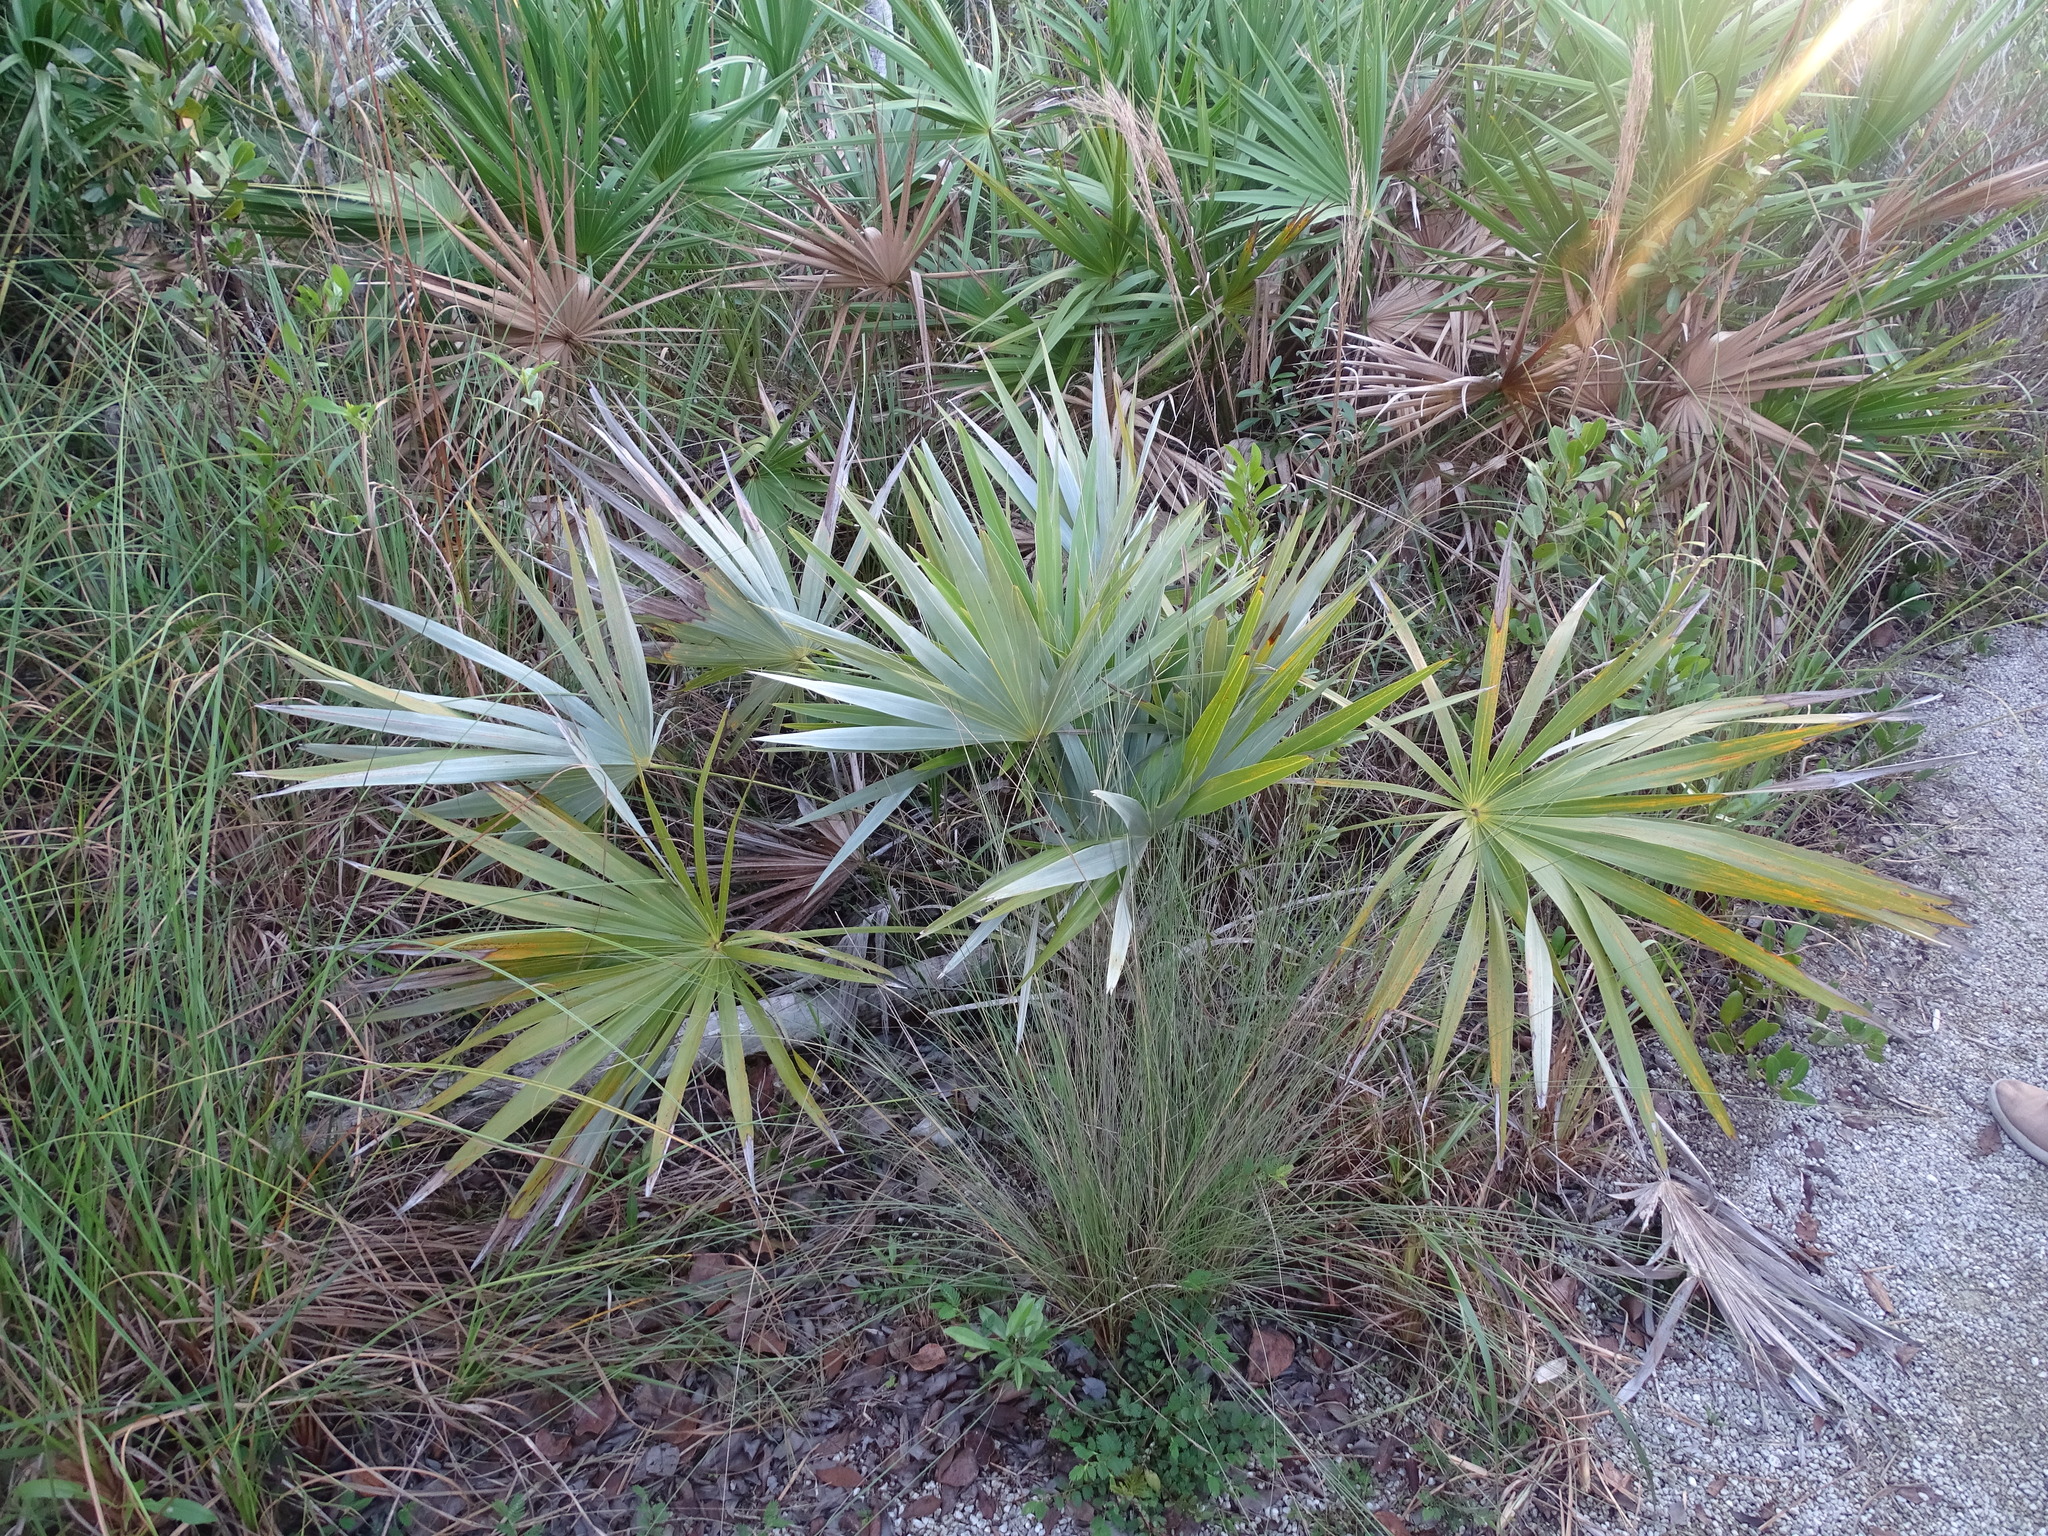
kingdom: Plantae
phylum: Tracheophyta
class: Liliopsida
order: Arecales
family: Arecaceae
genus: Leucothrinax
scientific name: Leucothrinax morrisii
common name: Key palm
